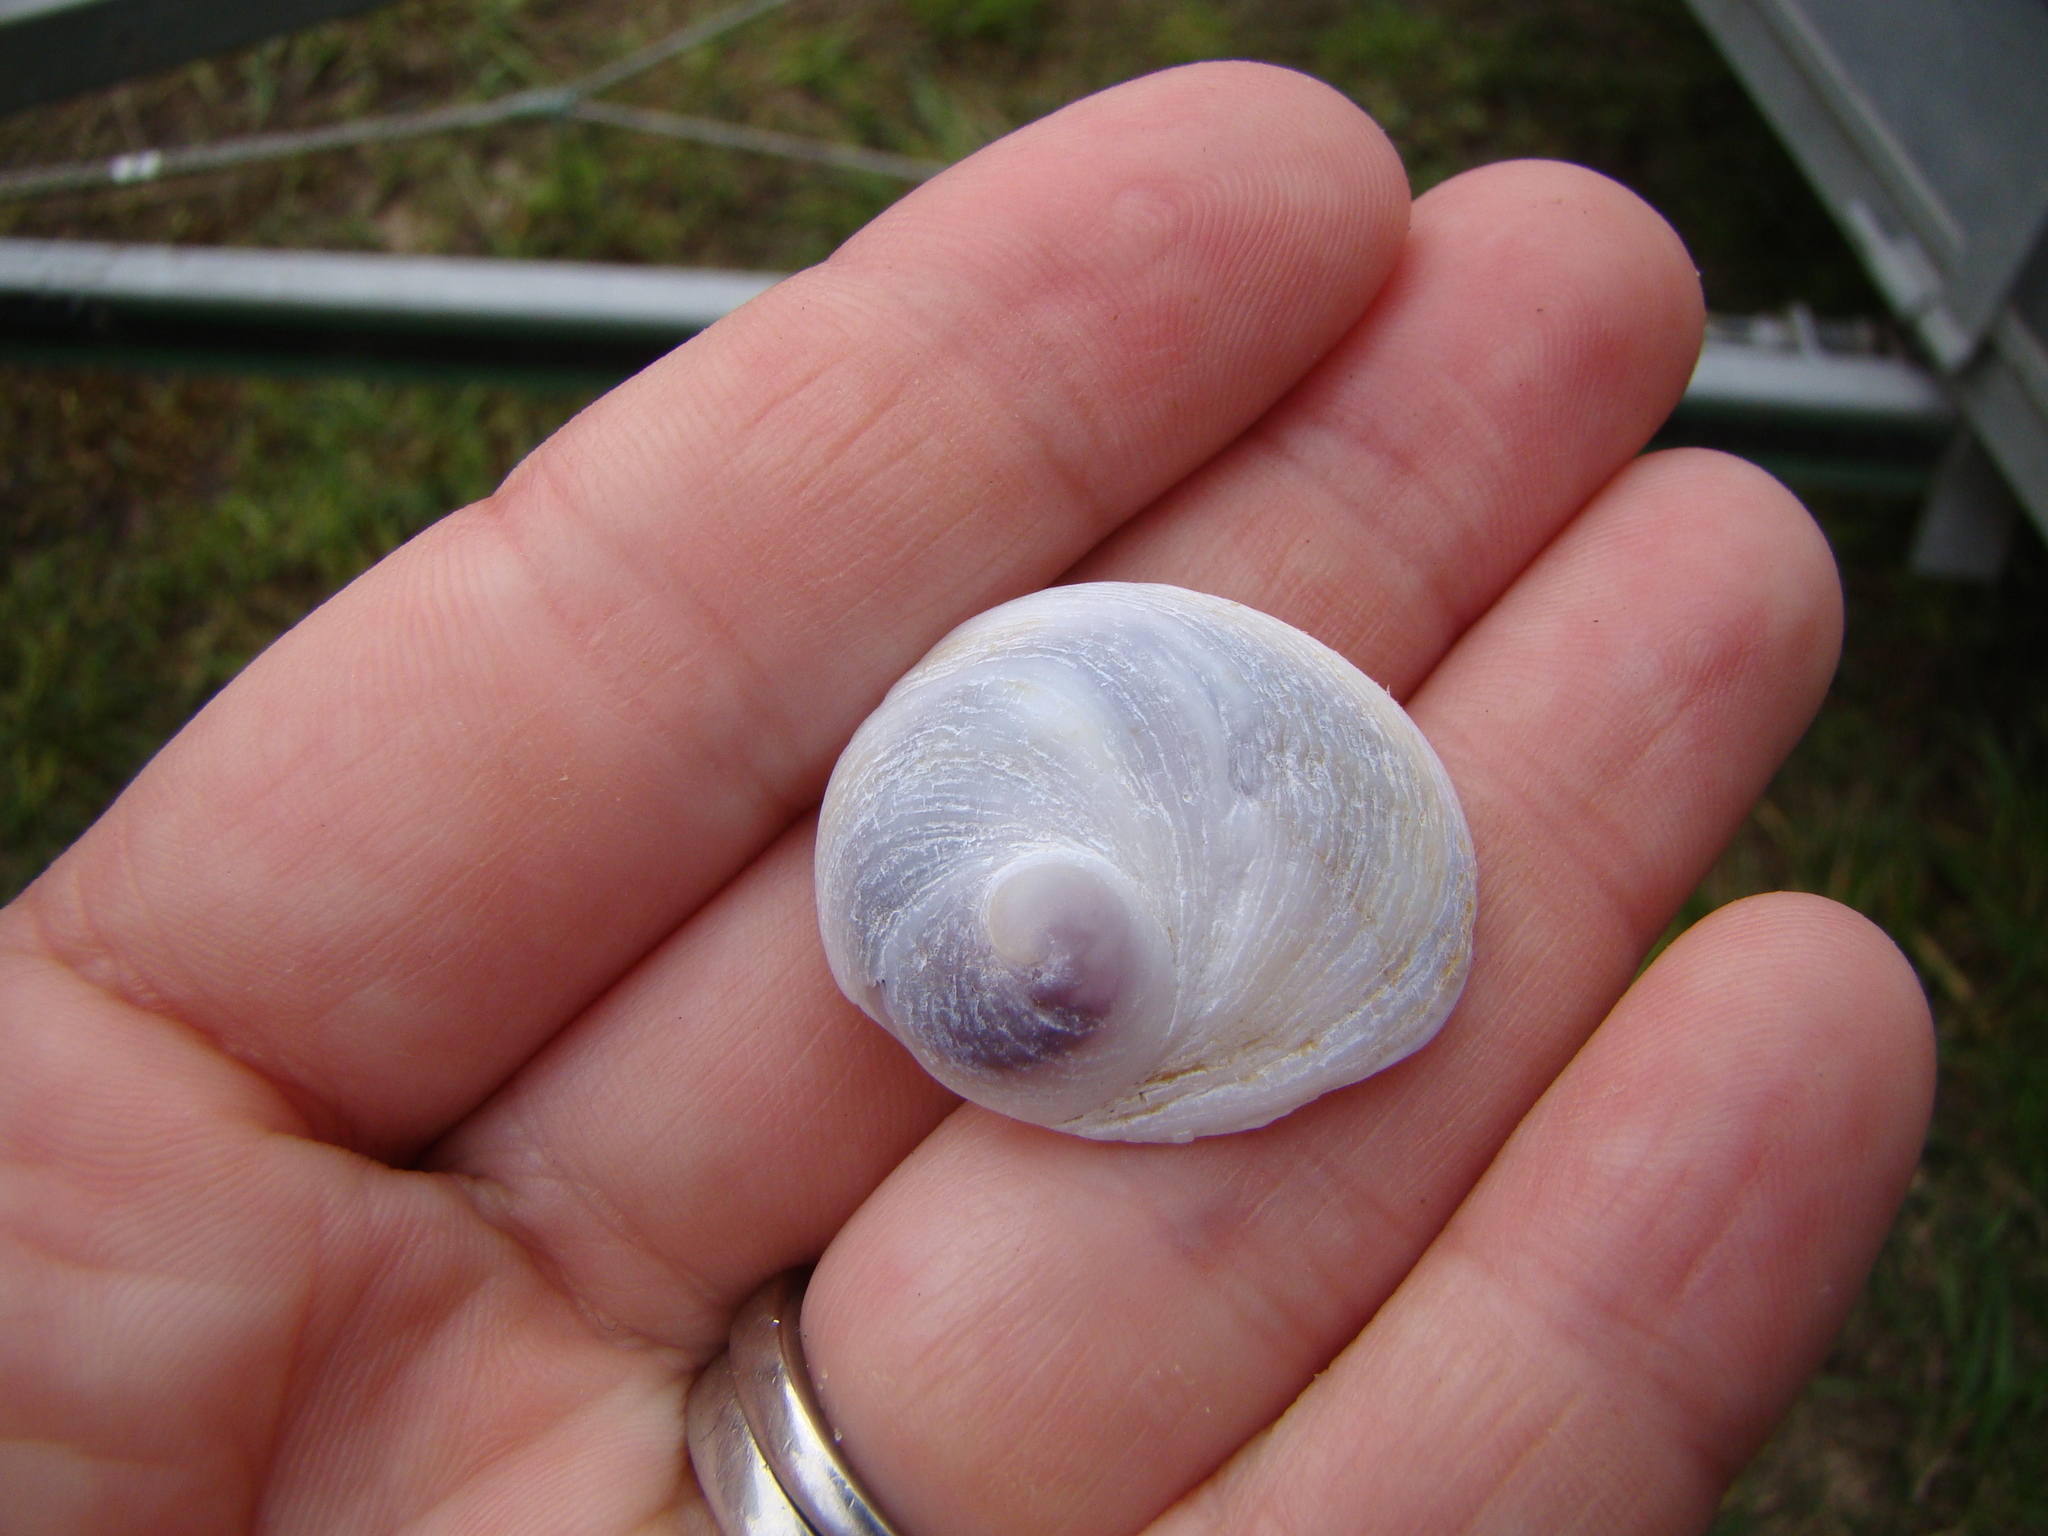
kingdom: Animalia
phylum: Mollusca
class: Gastropoda
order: Littorinimorpha
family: Calyptraeidae
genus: Sigapatella
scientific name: Sigapatella novaezelandiae
